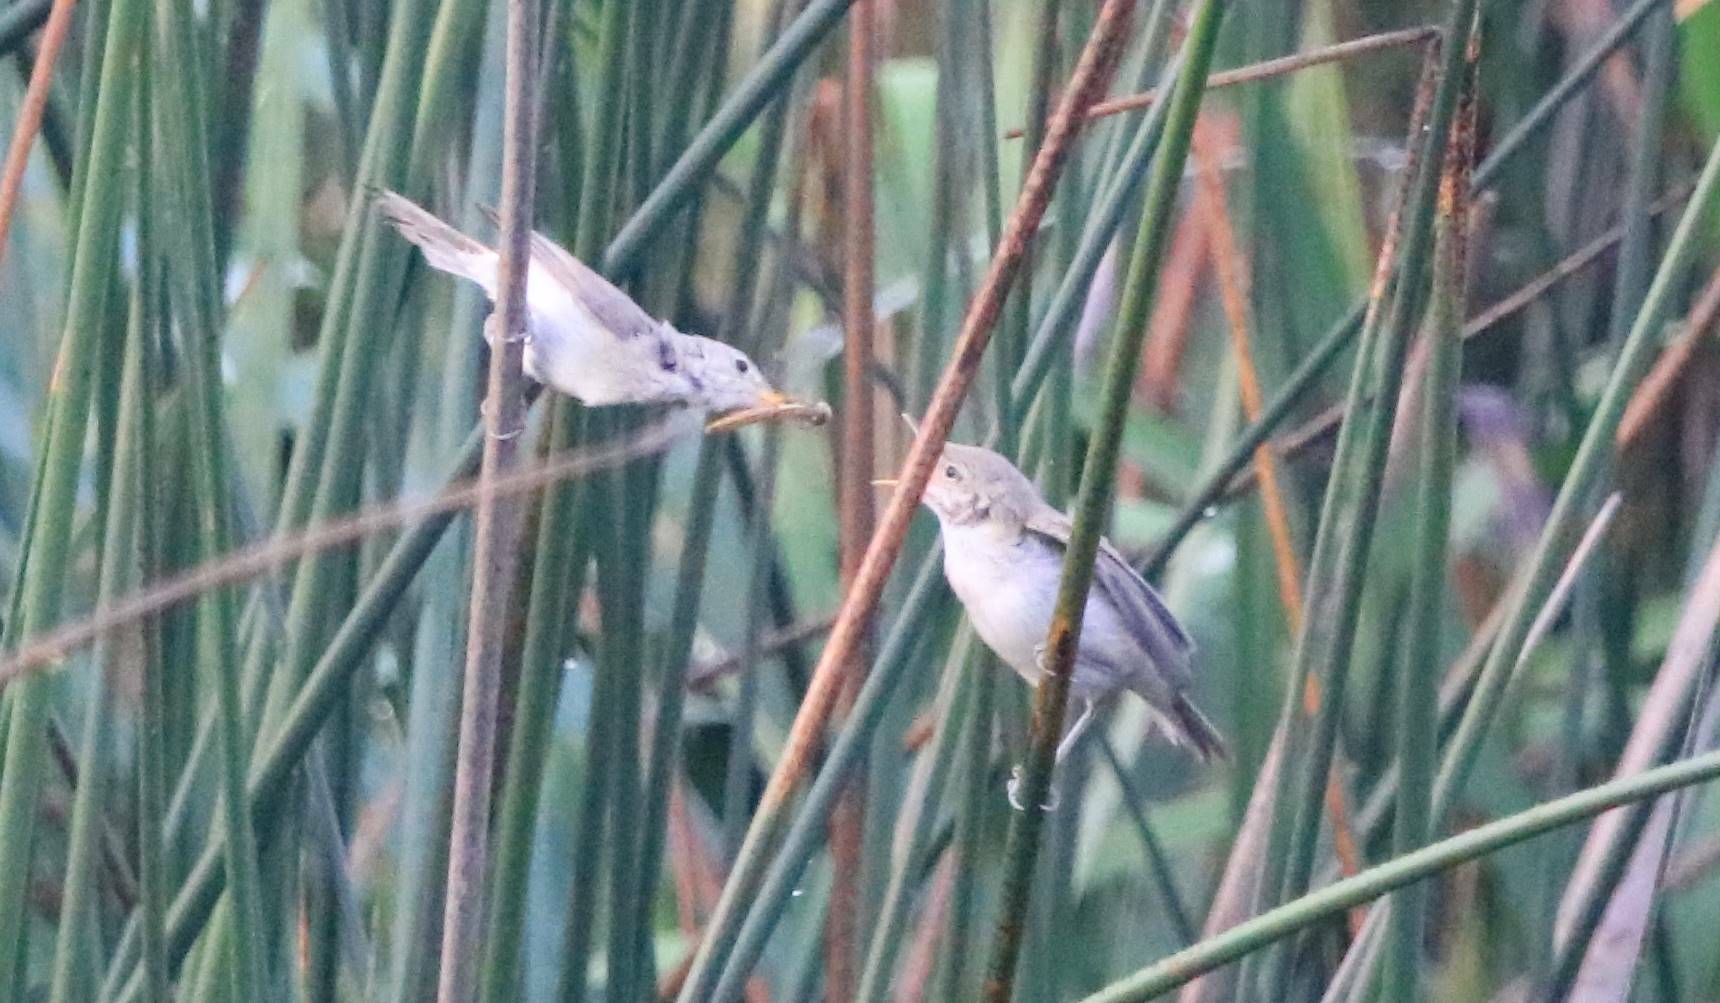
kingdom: Animalia
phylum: Chordata
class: Aves
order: Passeriformes
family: Acrocephalidae
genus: Acrocephalus
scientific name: Acrocephalus scirpaceus
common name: Eurasian reed warbler
